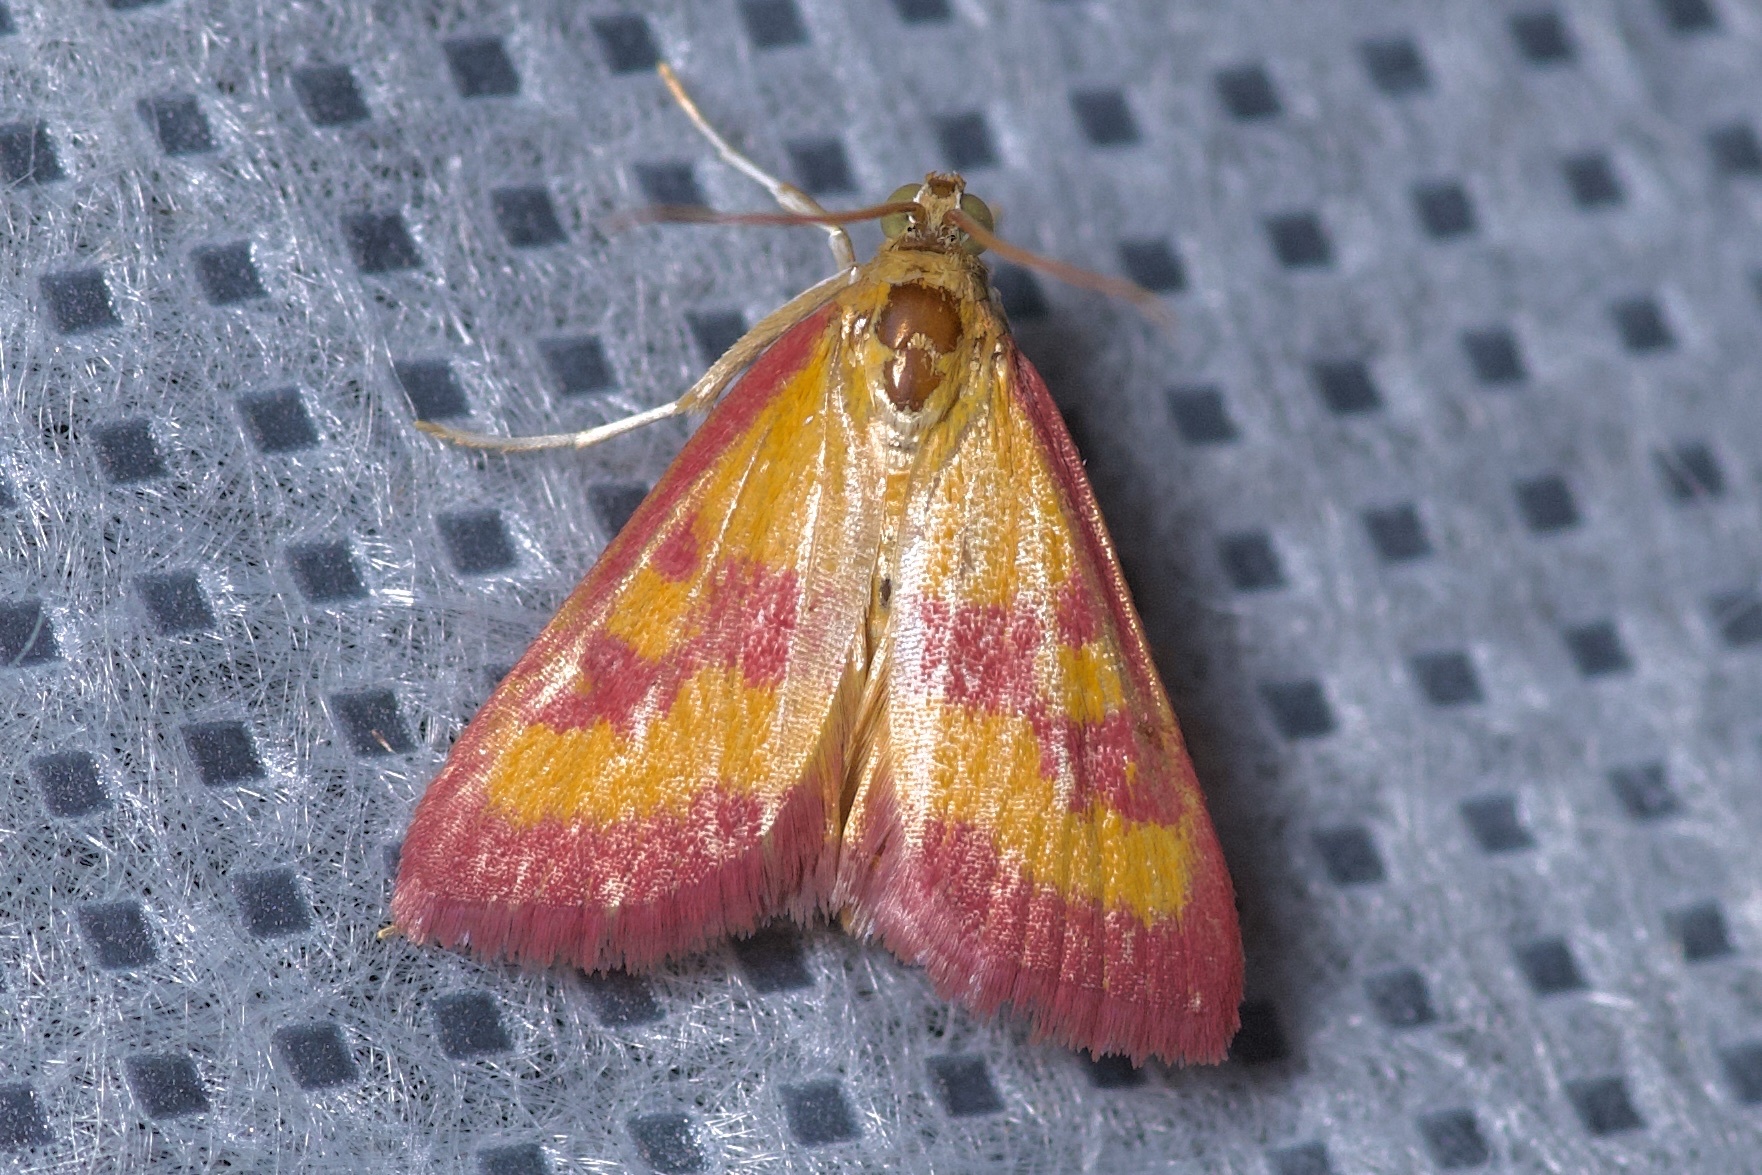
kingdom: Animalia
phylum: Arthropoda
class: Insecta
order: Lepidoptera
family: Crambidae
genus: Pyrausta
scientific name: Pyrausta laticlavia
